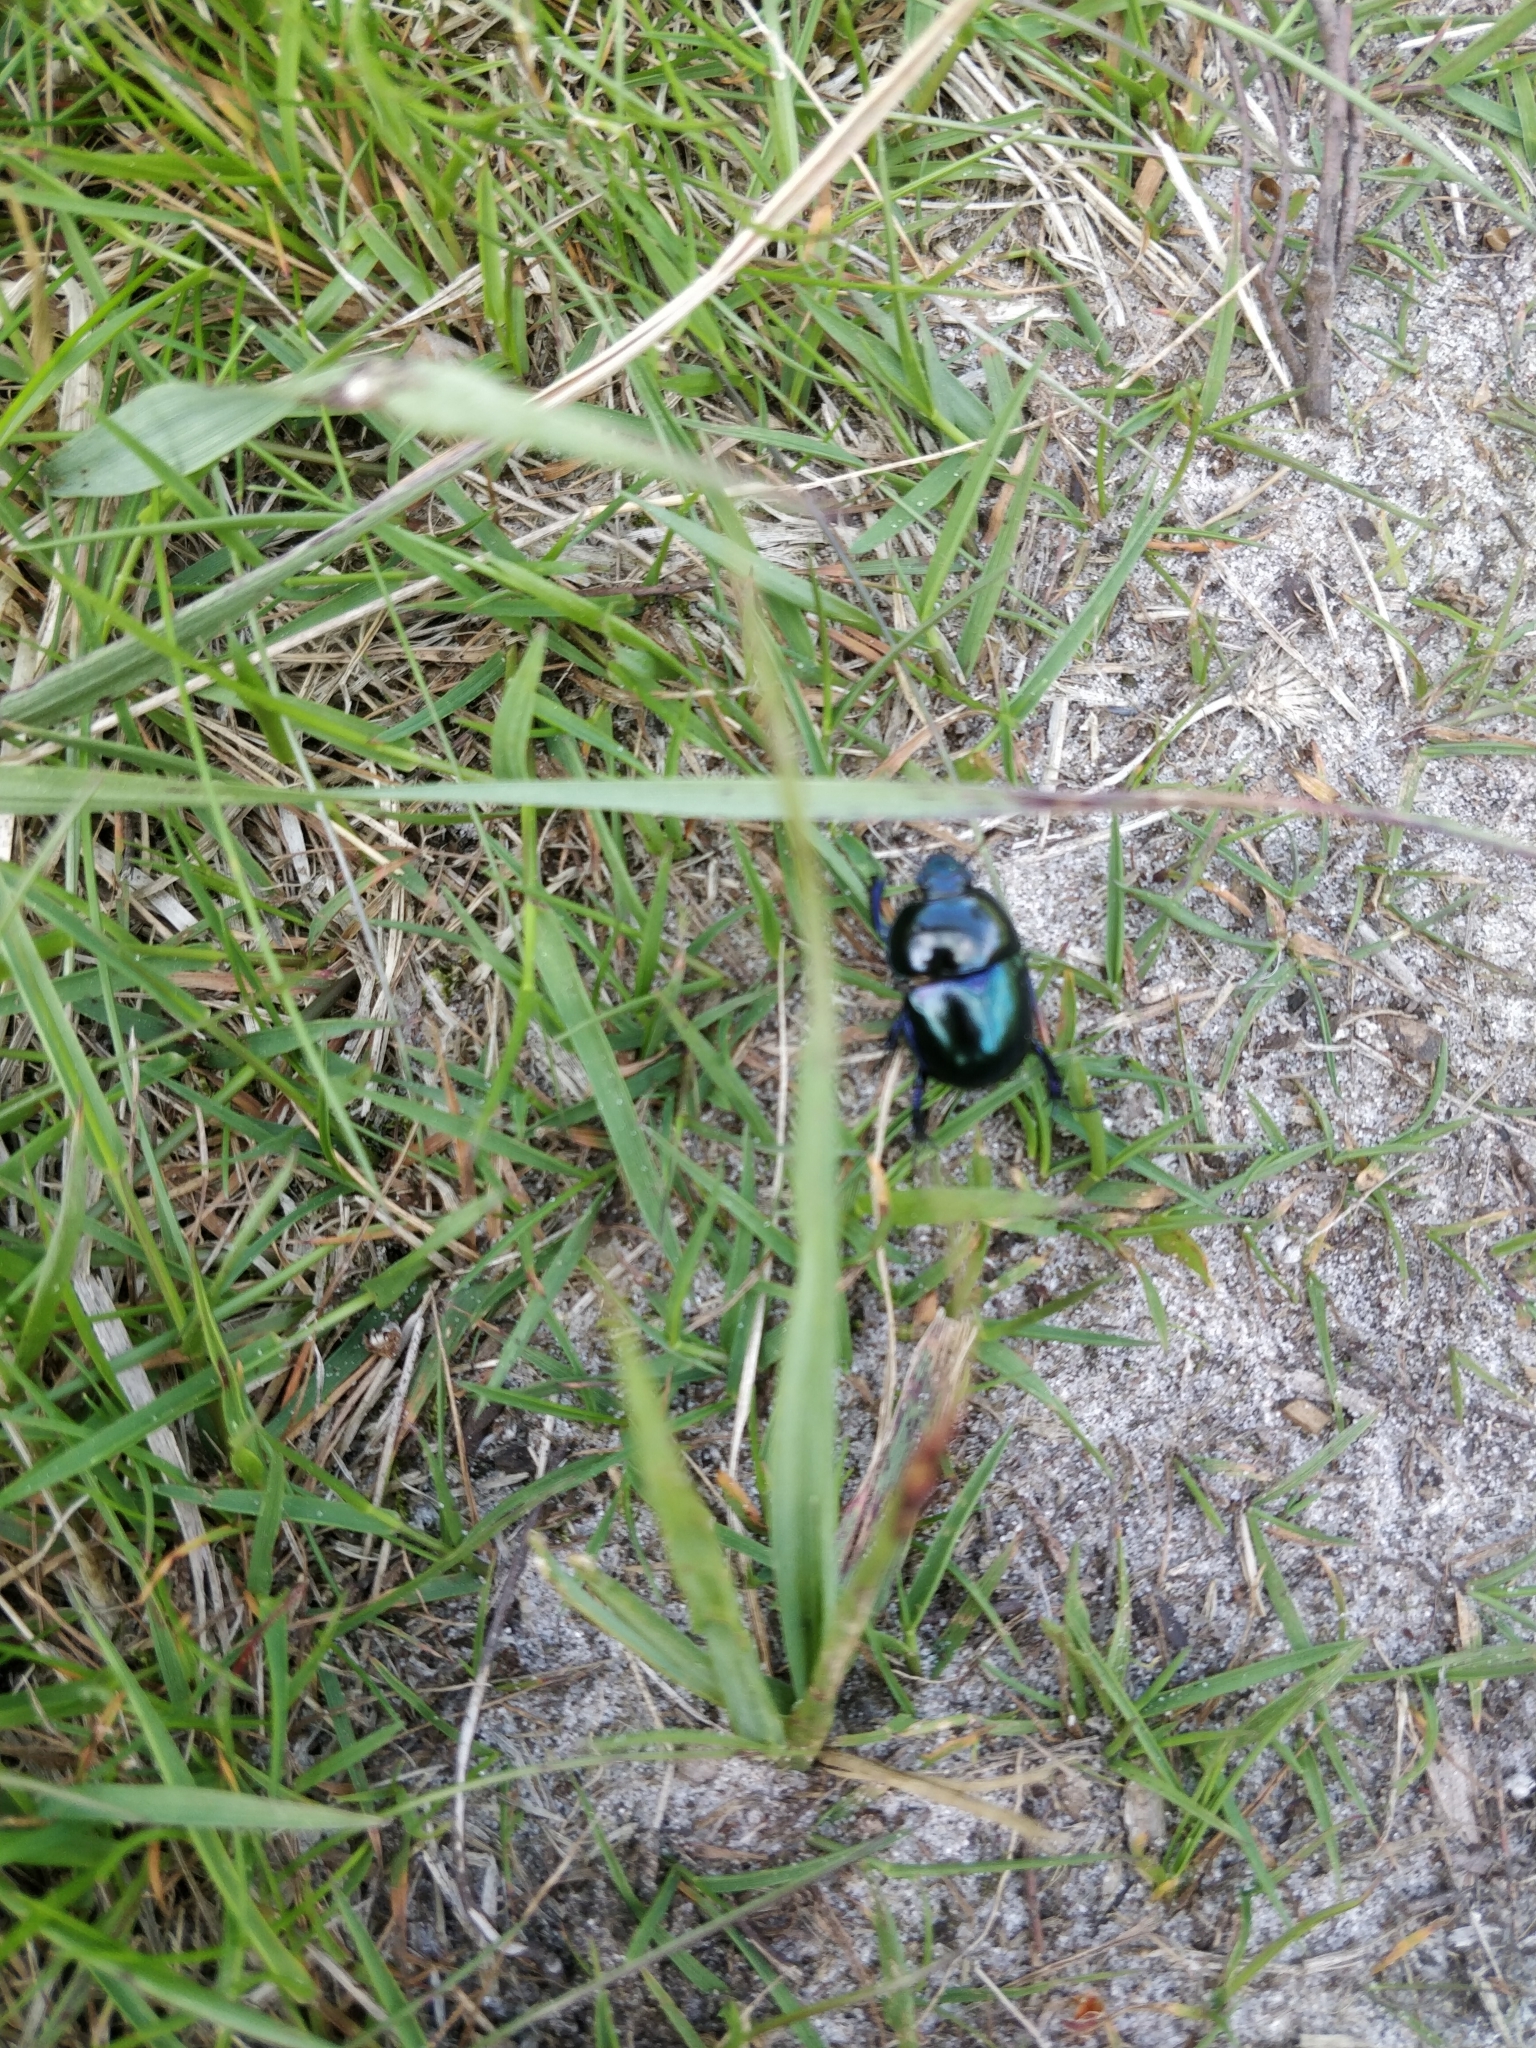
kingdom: Animalia
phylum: Arthropoda
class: Insecta
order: Coleoptera
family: Geotrupidae
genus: Trypocopris
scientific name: Trypocopris vernalis
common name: Spring dumbledor
